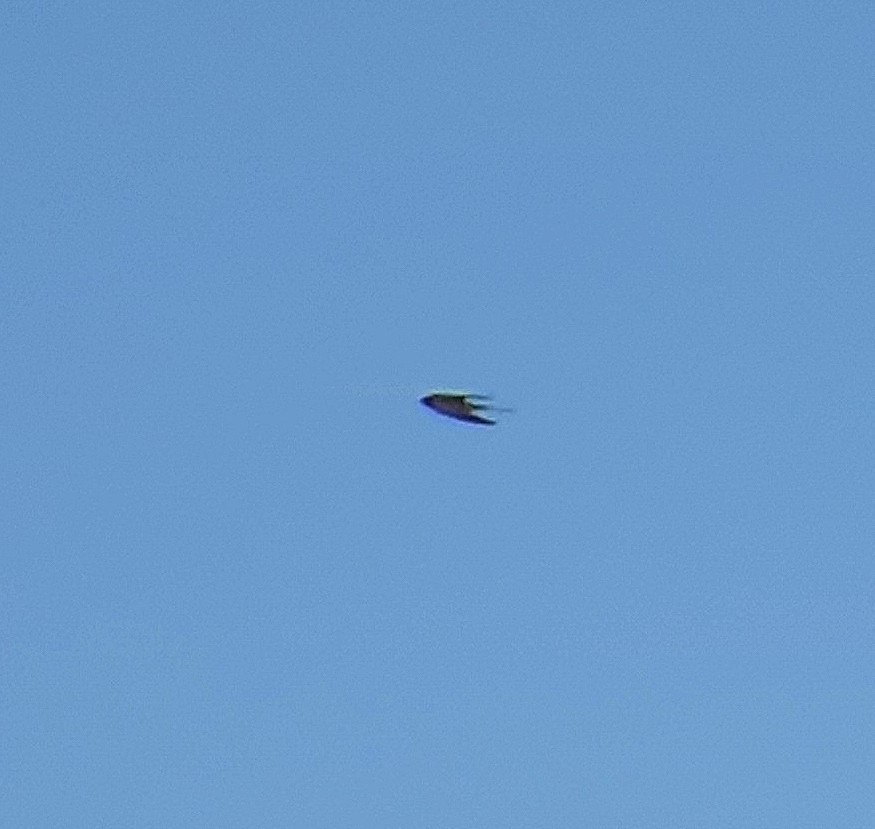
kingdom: Animalia
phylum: Chordata
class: Aves
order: Passeriformes
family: Hirundinidae
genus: Hirundo
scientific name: Hirundo rustica
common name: Barn swallow
